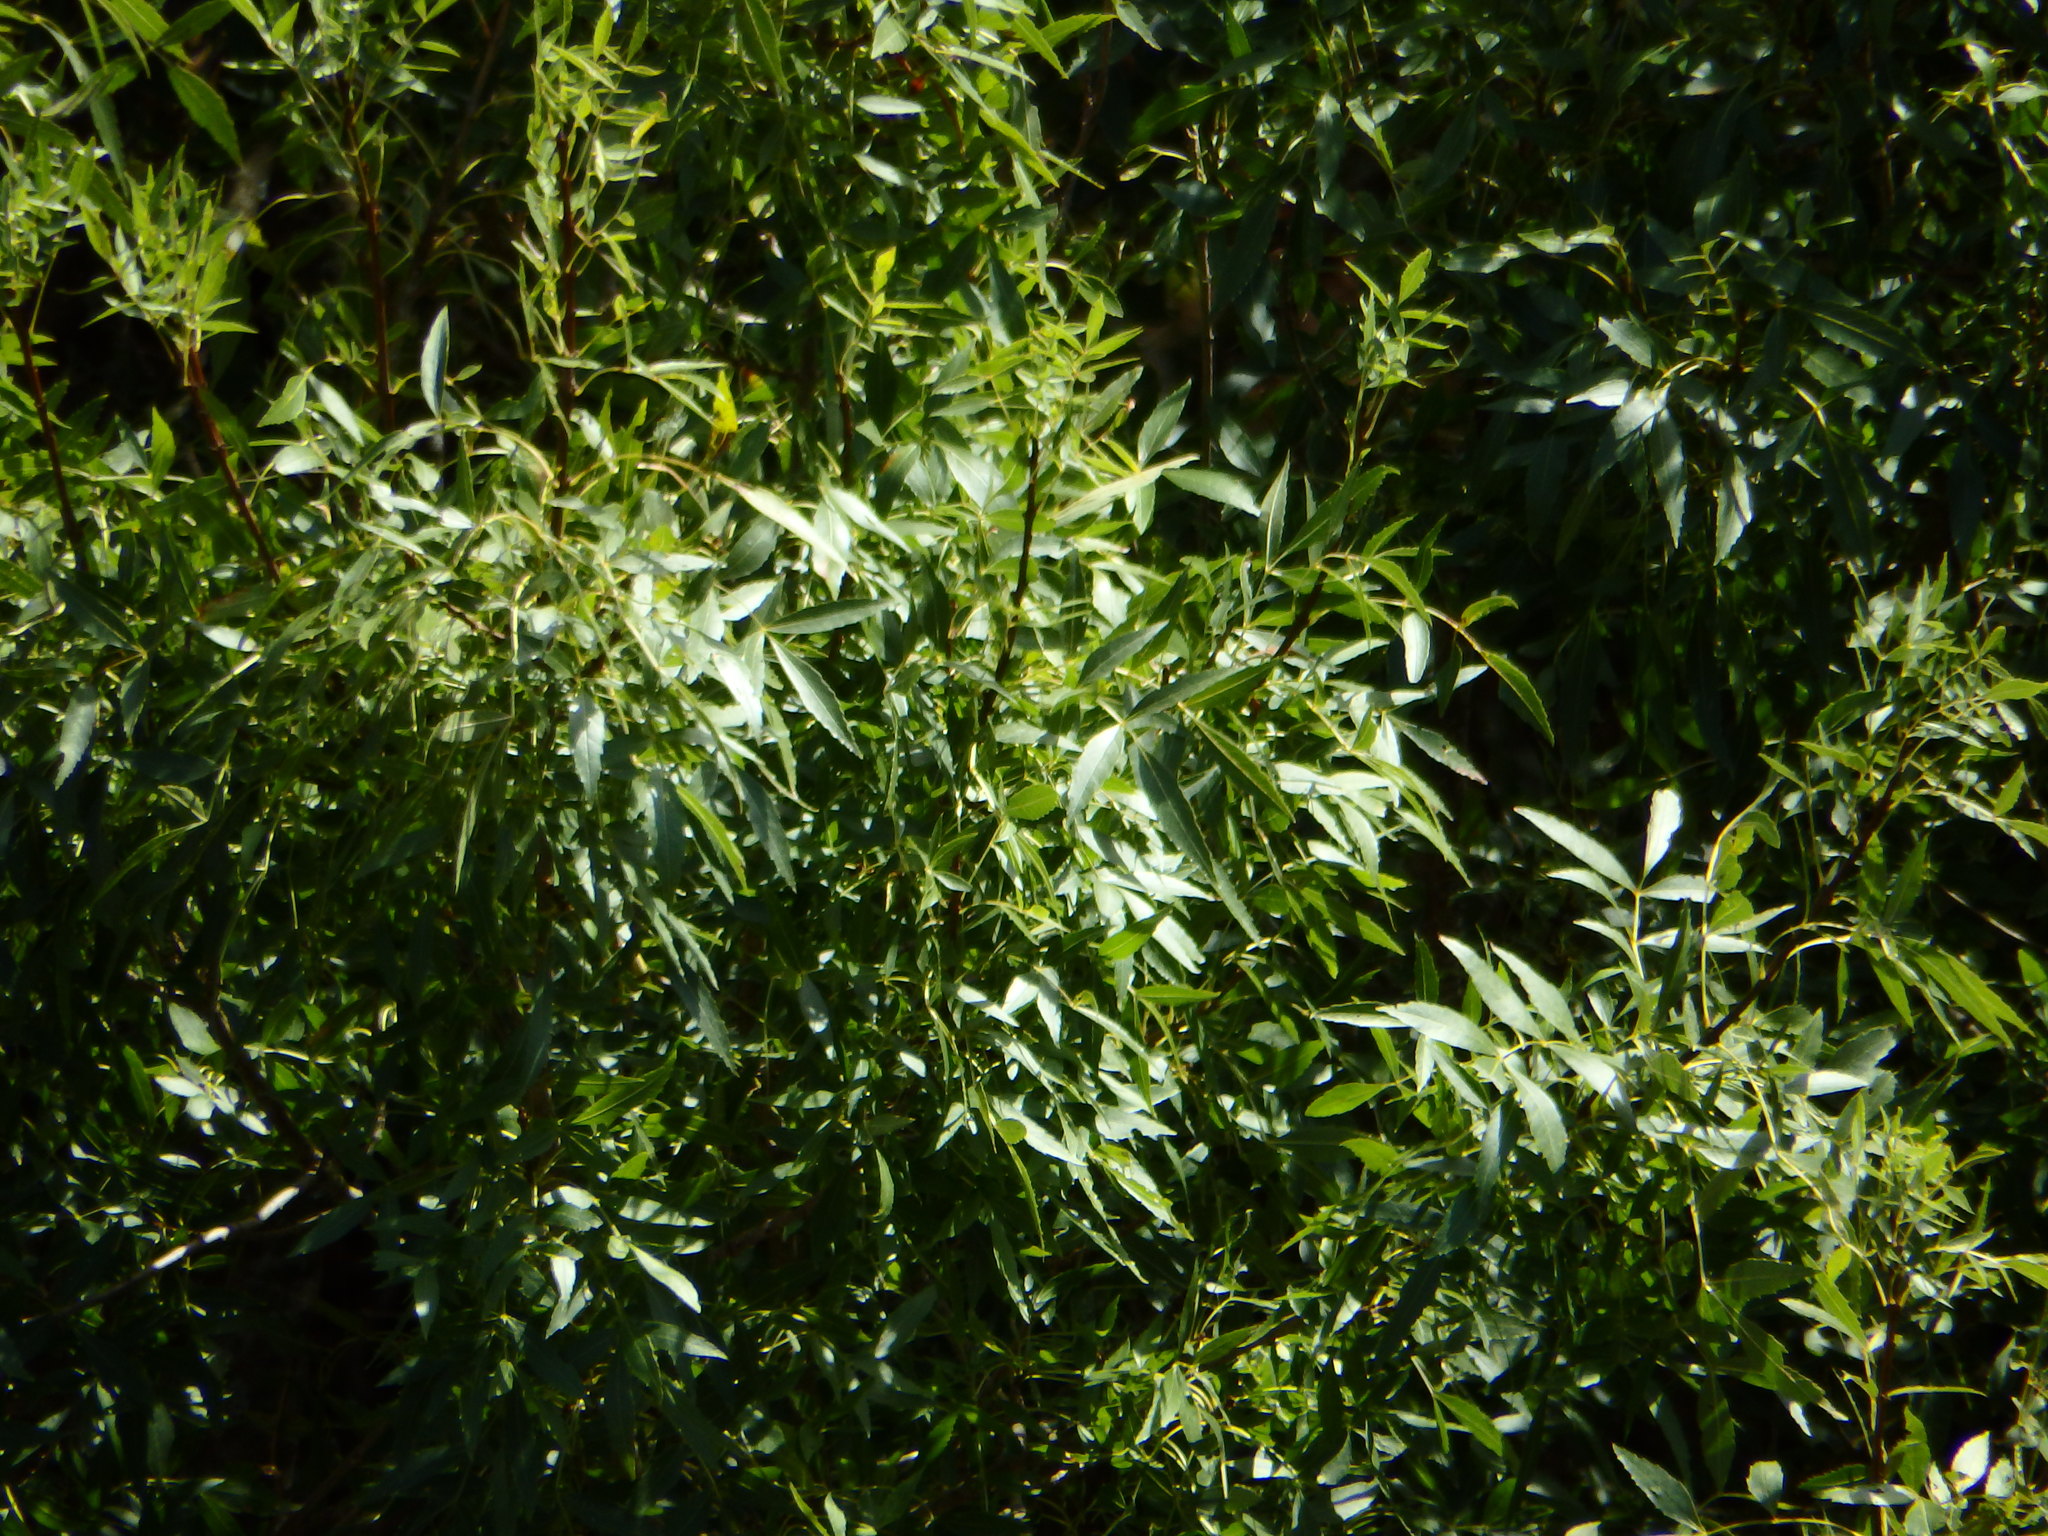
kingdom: Plantae
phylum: Tracheophyta
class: Magnoliopsida
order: Lamiales
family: Oleaceae
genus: Fraxinus
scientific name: Fraxinus angustifolia
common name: Narrow-leafed ash
